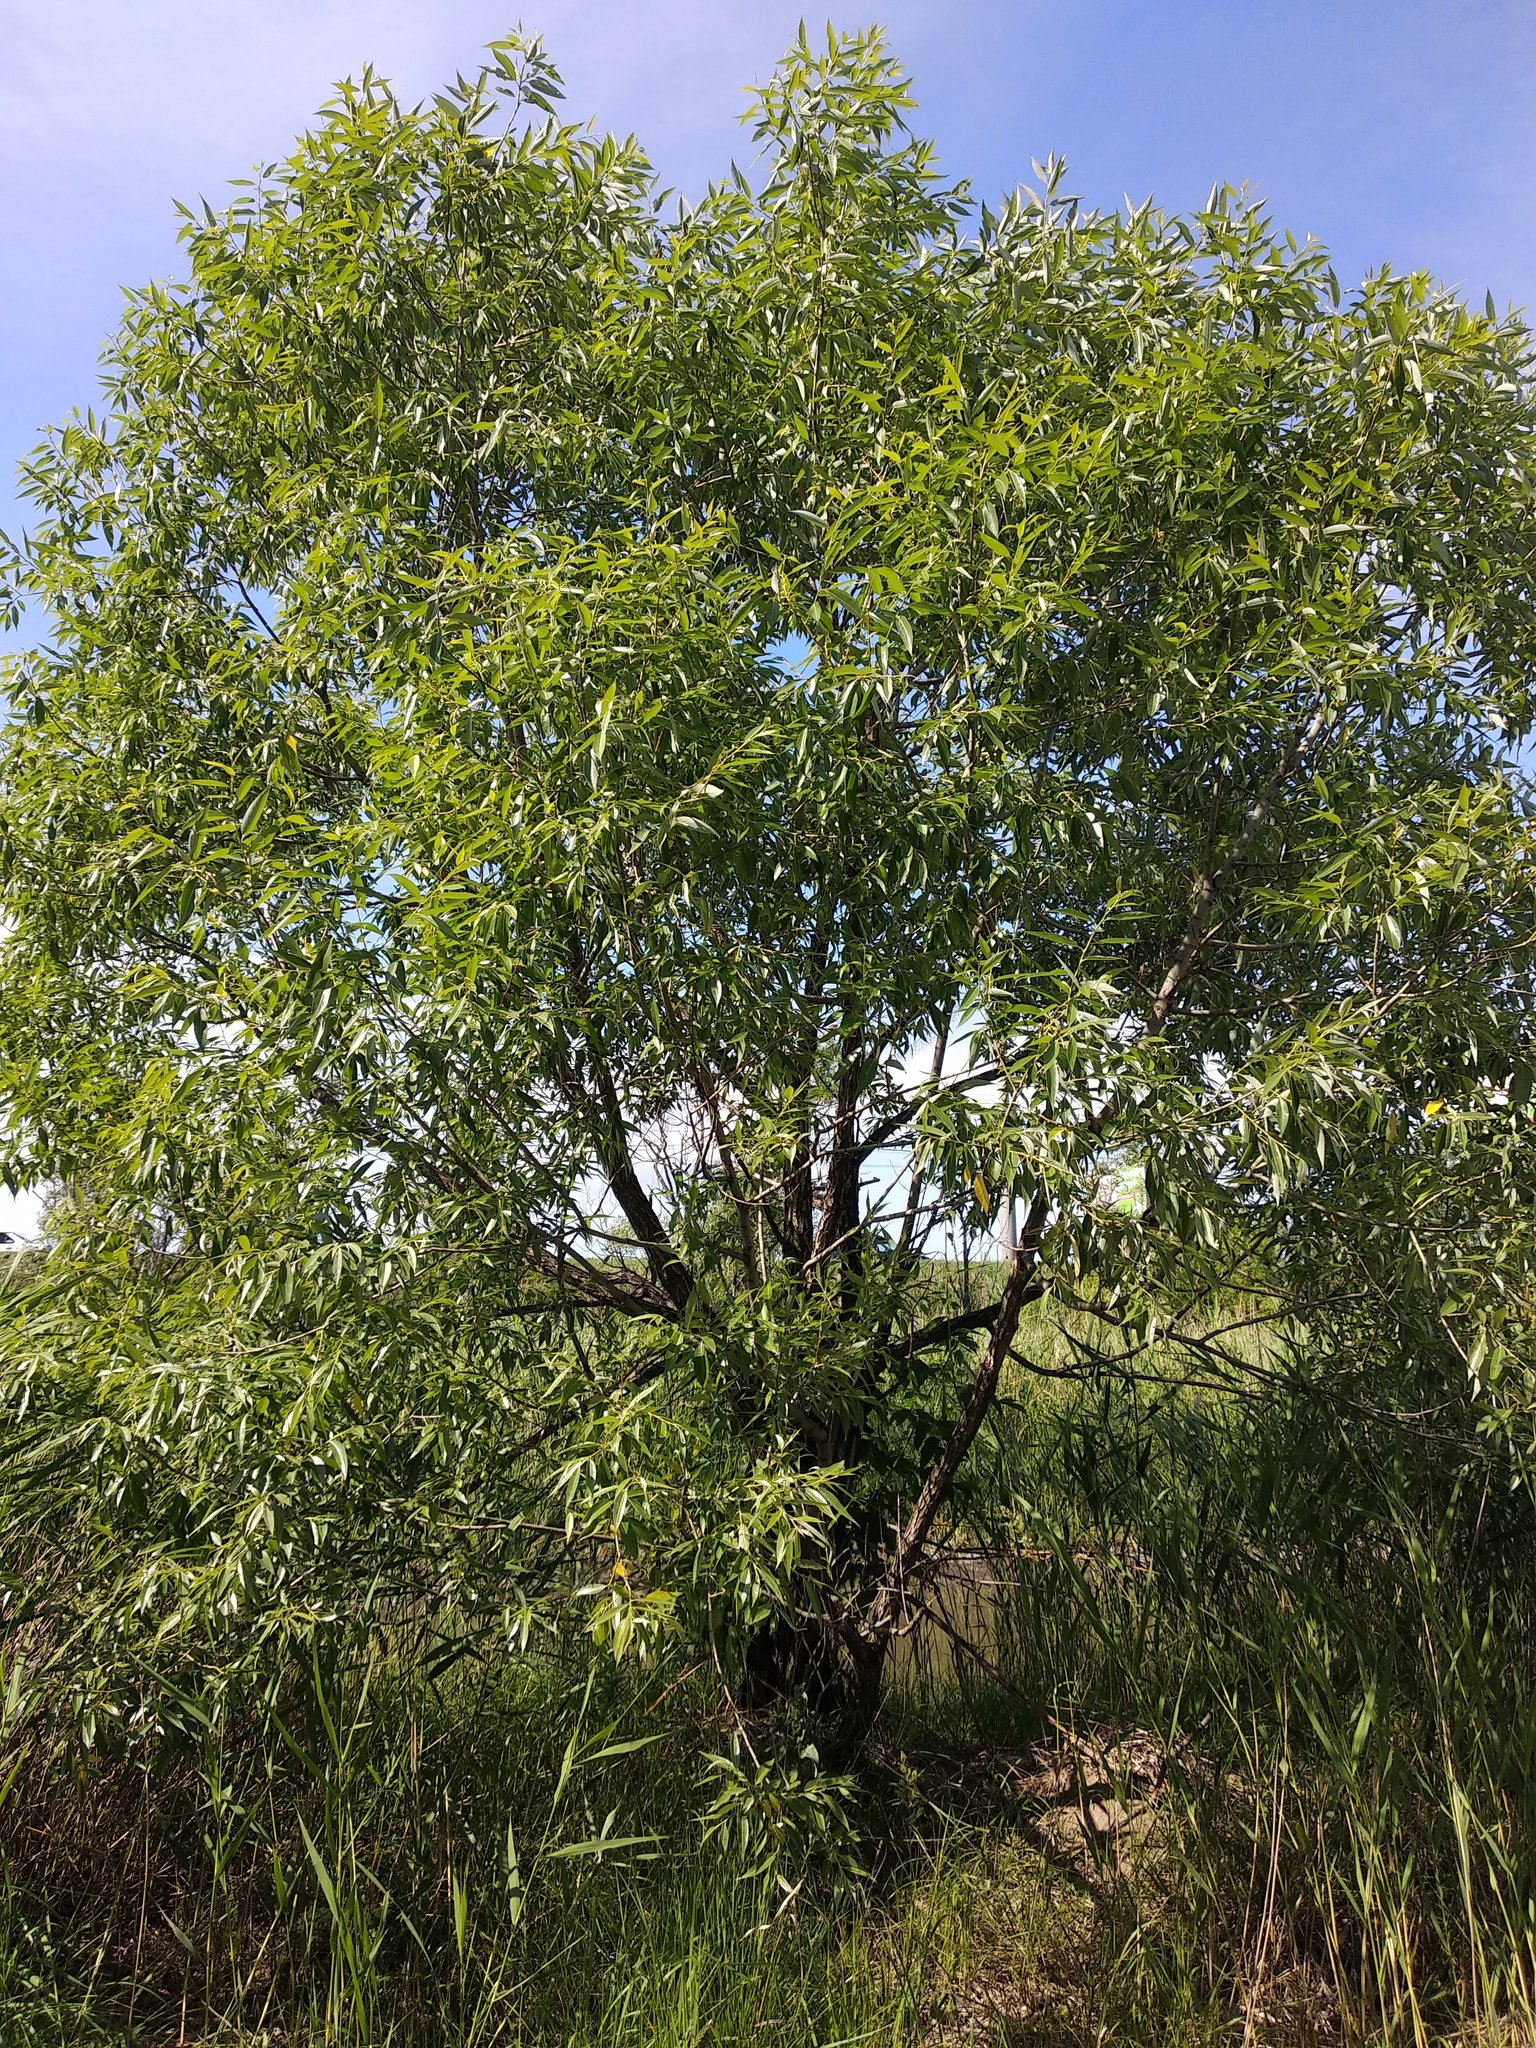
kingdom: Plantae
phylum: Tracheophyta
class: Magnoliopsida
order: Malpighiales
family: Salicaceae
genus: Salix
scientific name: Salix alba
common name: White willow
